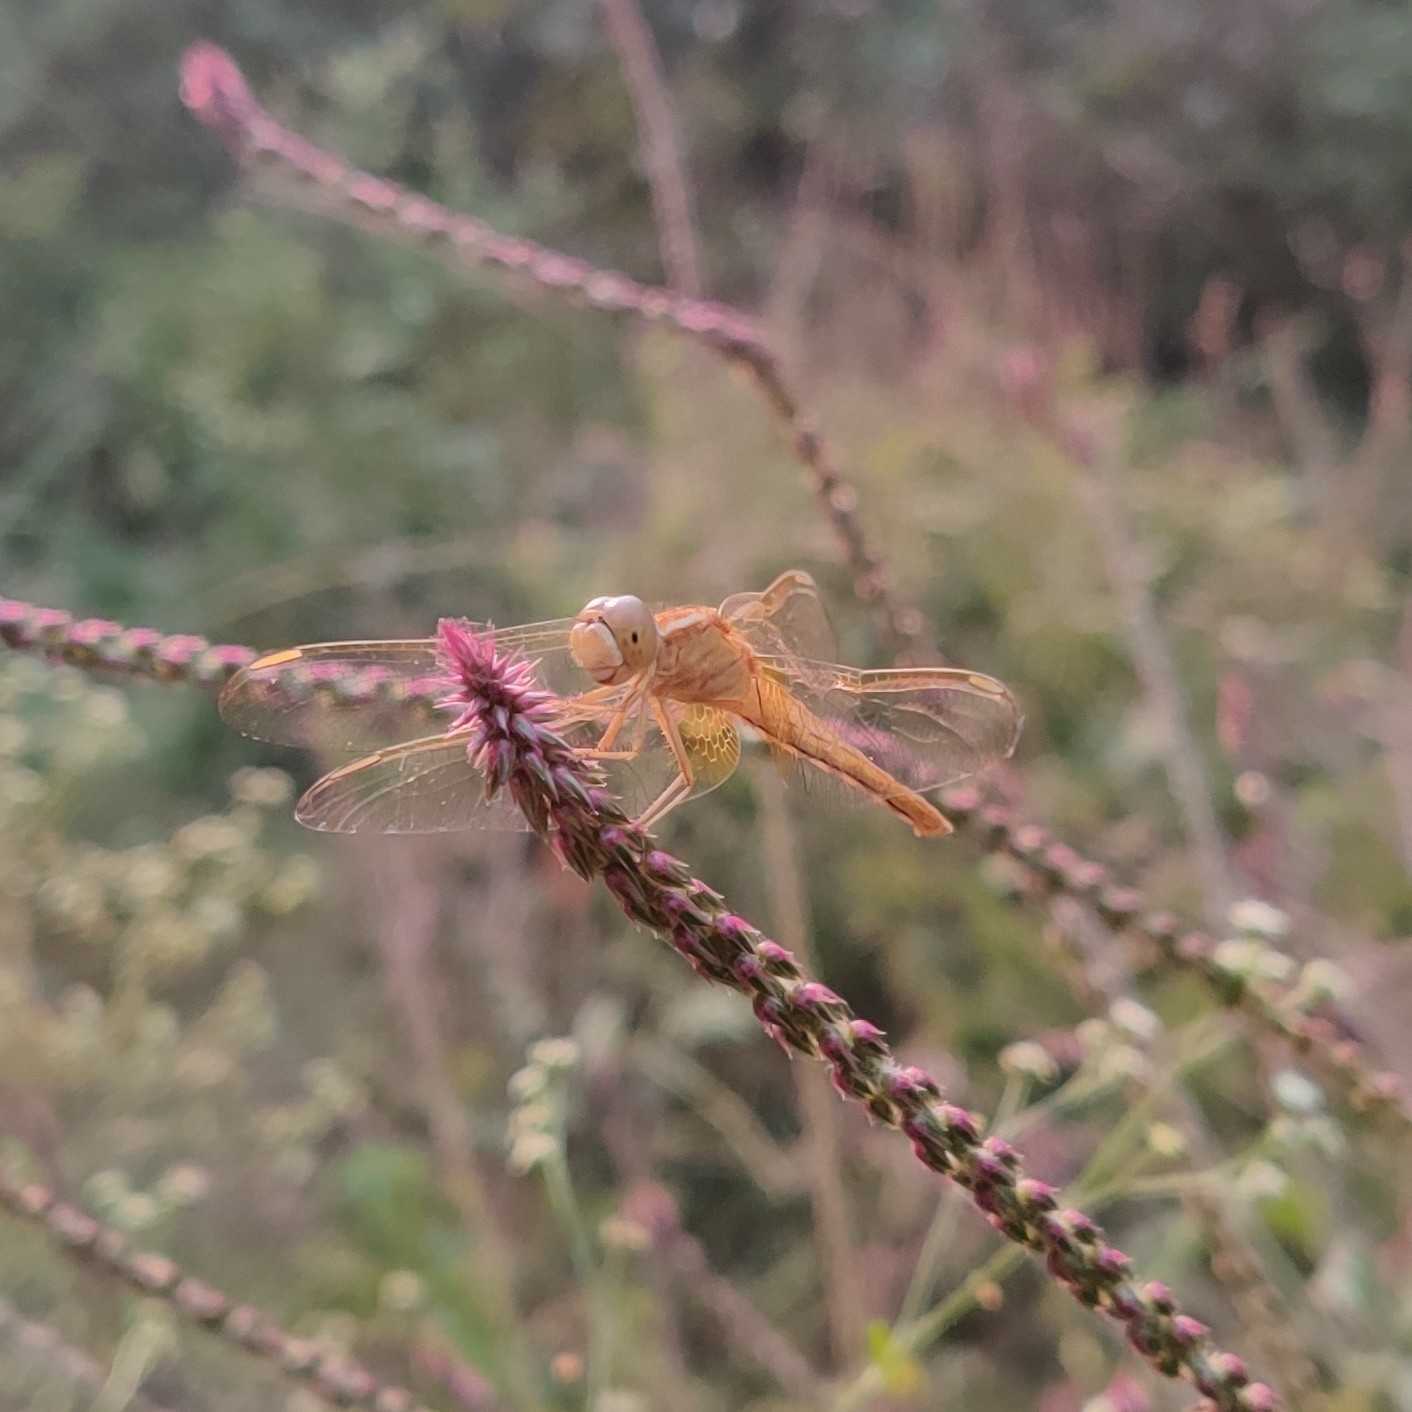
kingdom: Animalia
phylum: Arthropoda
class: Insecta
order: Odonata
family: Libellulidae
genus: Crocothemis
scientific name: Crocothemis servilia
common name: Scarlet skimmer
